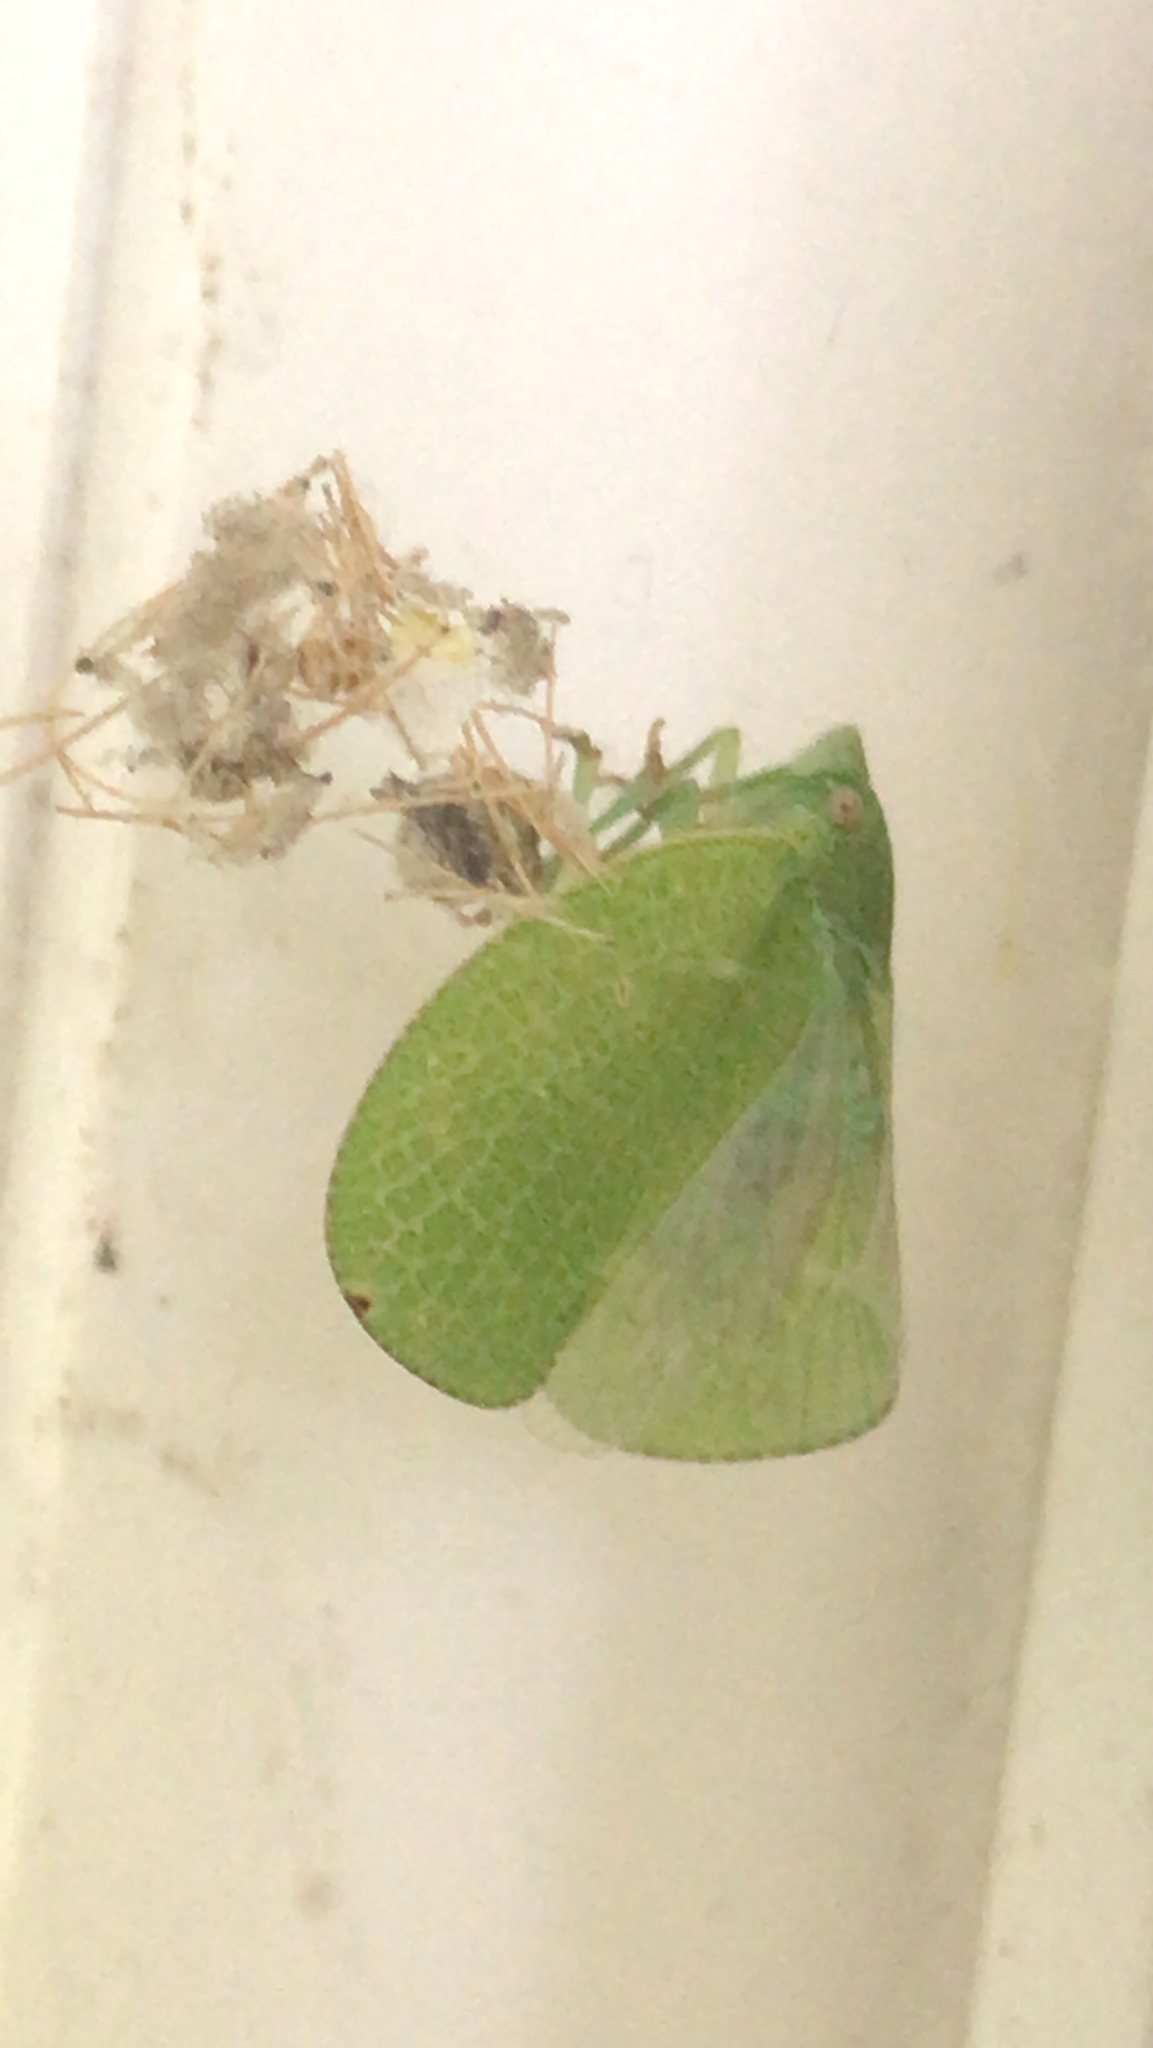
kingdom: Animalia
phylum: Arthropoda
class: Insecta
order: Hemiptera
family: Acanaloniidae
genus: Acanalonia
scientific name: Acanalonia conica
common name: Green cone-headed planthopper
